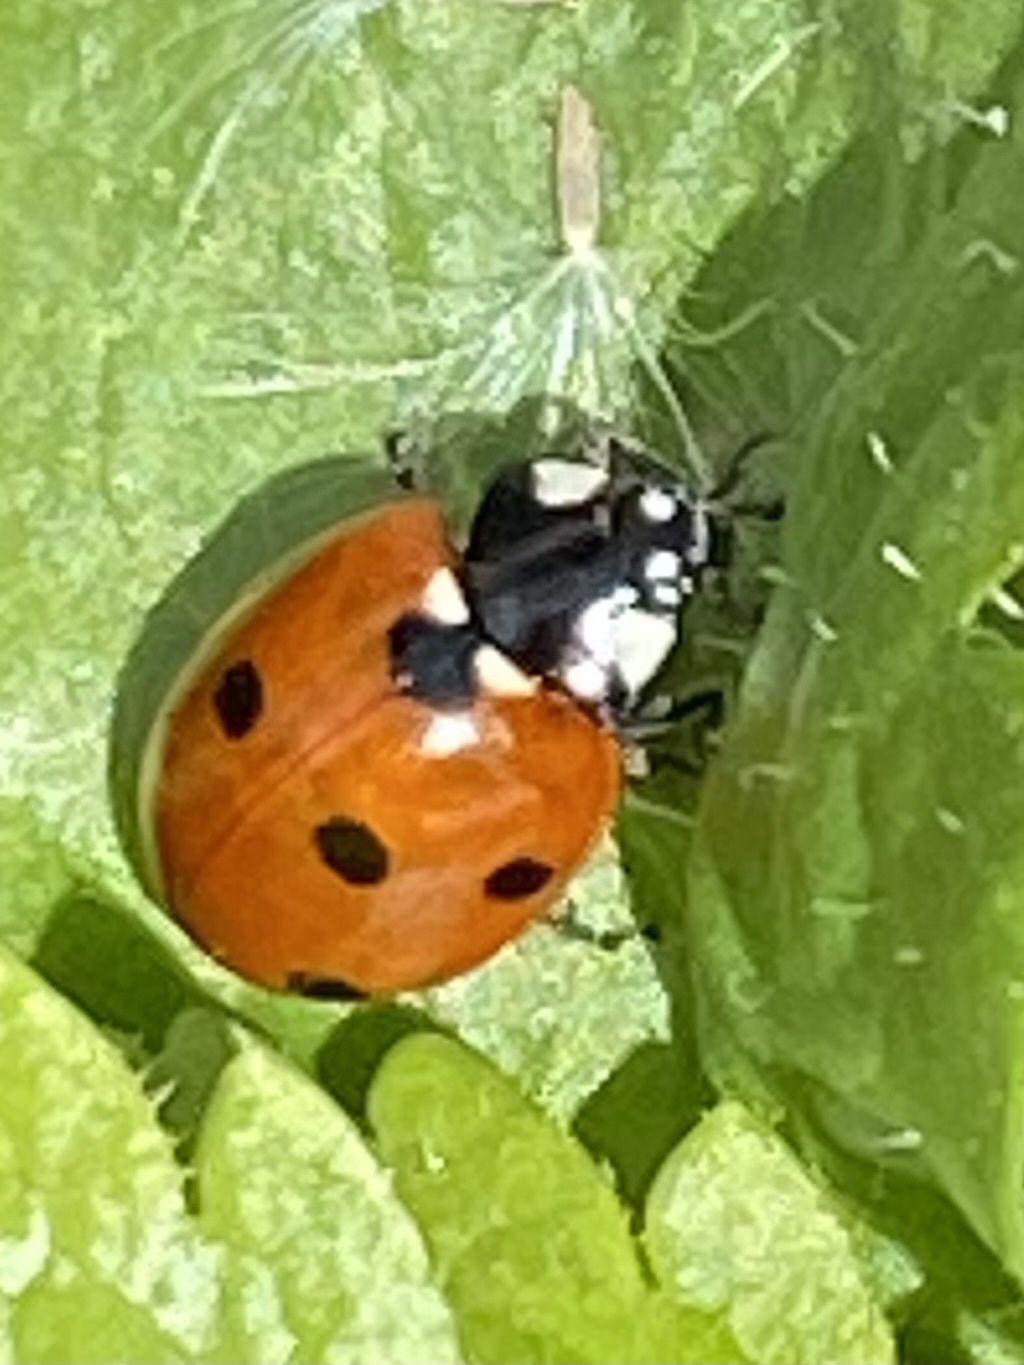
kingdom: Animalia
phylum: Arthropoda
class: Insecta
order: Coleoptera
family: Coccinellidae
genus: Coccinella
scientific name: Coccinella septempunctata
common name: Sevenspotted lady beetle
